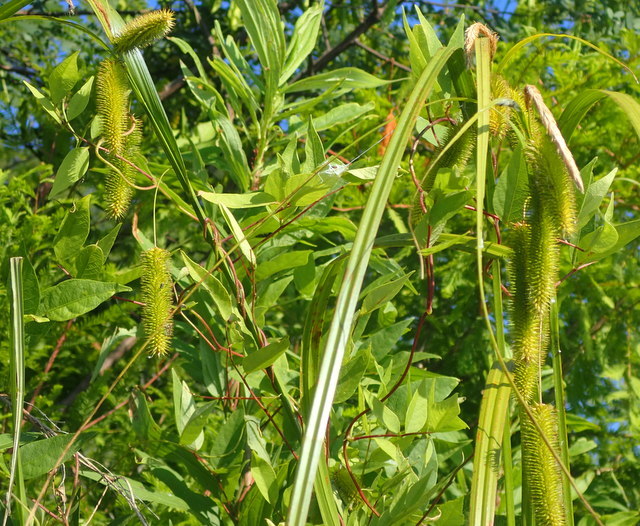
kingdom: Plantae
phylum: Tracheophyta
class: Liliopsida
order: Poales
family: Cyperaceae
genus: Carex
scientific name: Carex comosa
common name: Bristly sedge
